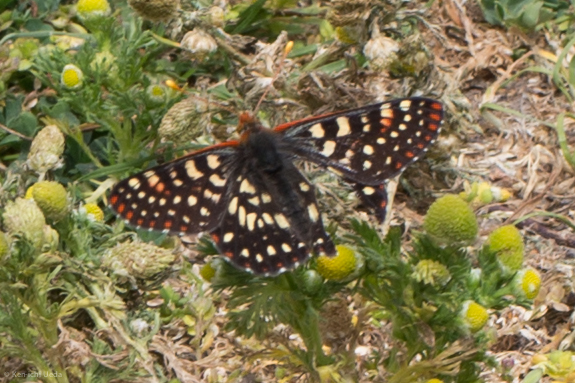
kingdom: Animalia
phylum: Arthropoda
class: Insecta
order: Lepidoptera
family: Nymphalidae
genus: Occidryas
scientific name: Occidryas chalcedona
